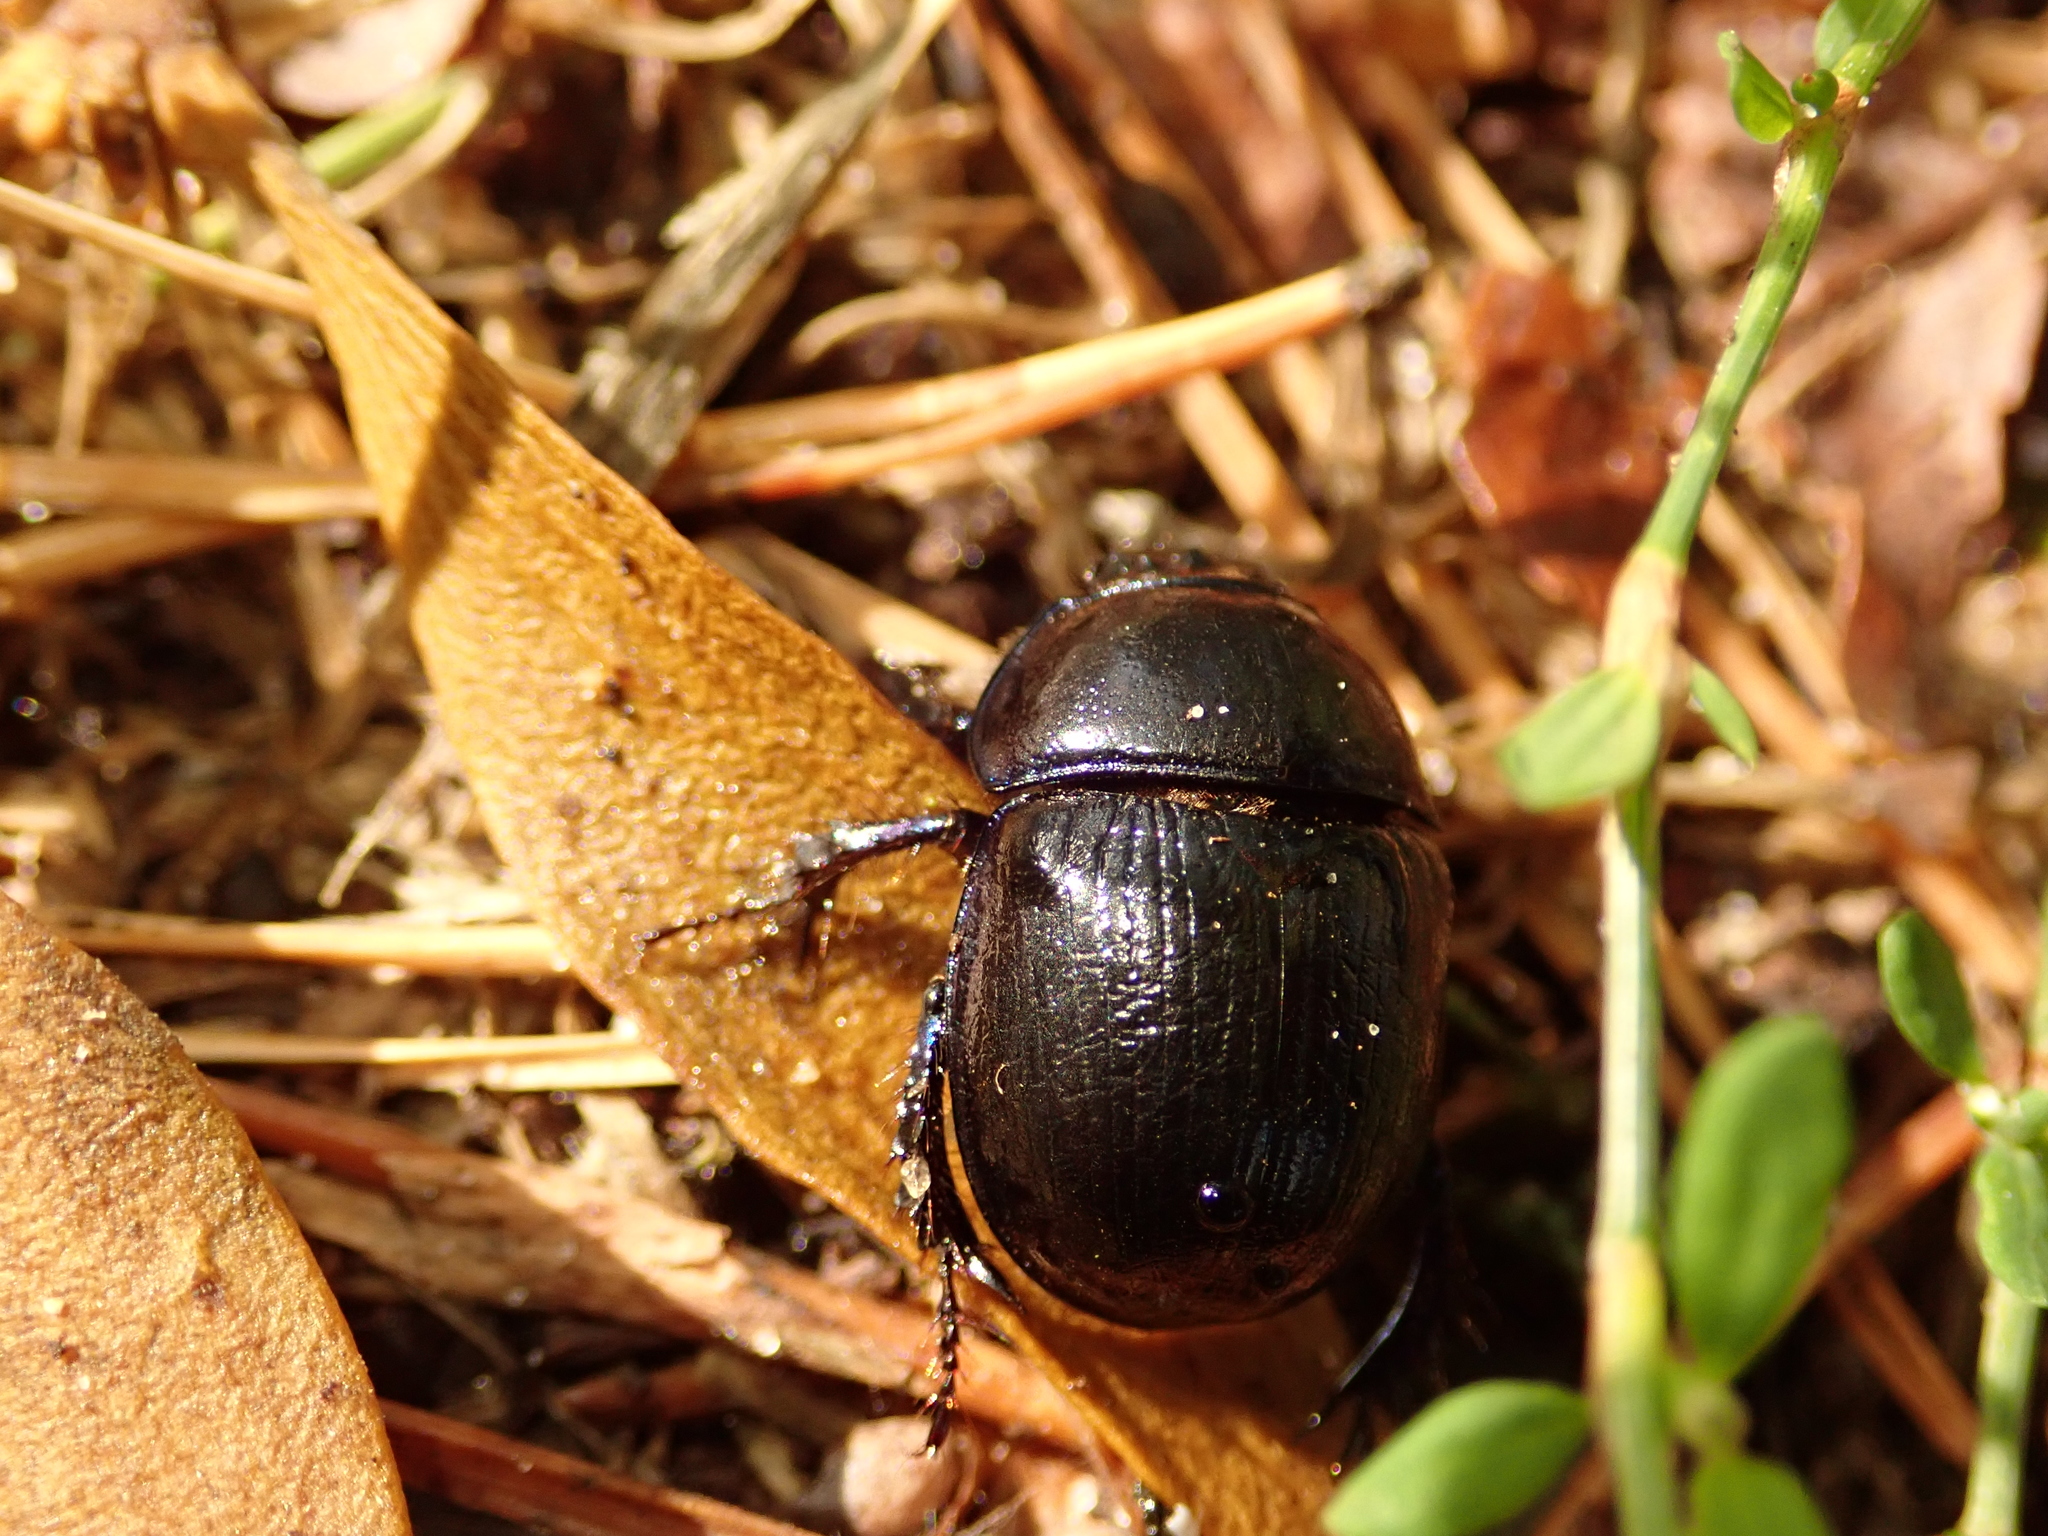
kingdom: Animalia
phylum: Arthropoda
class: Insecta
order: Coleoptera
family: Geotrupidae
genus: Anoplotrupes
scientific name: Anoplotrupes stercorosus
